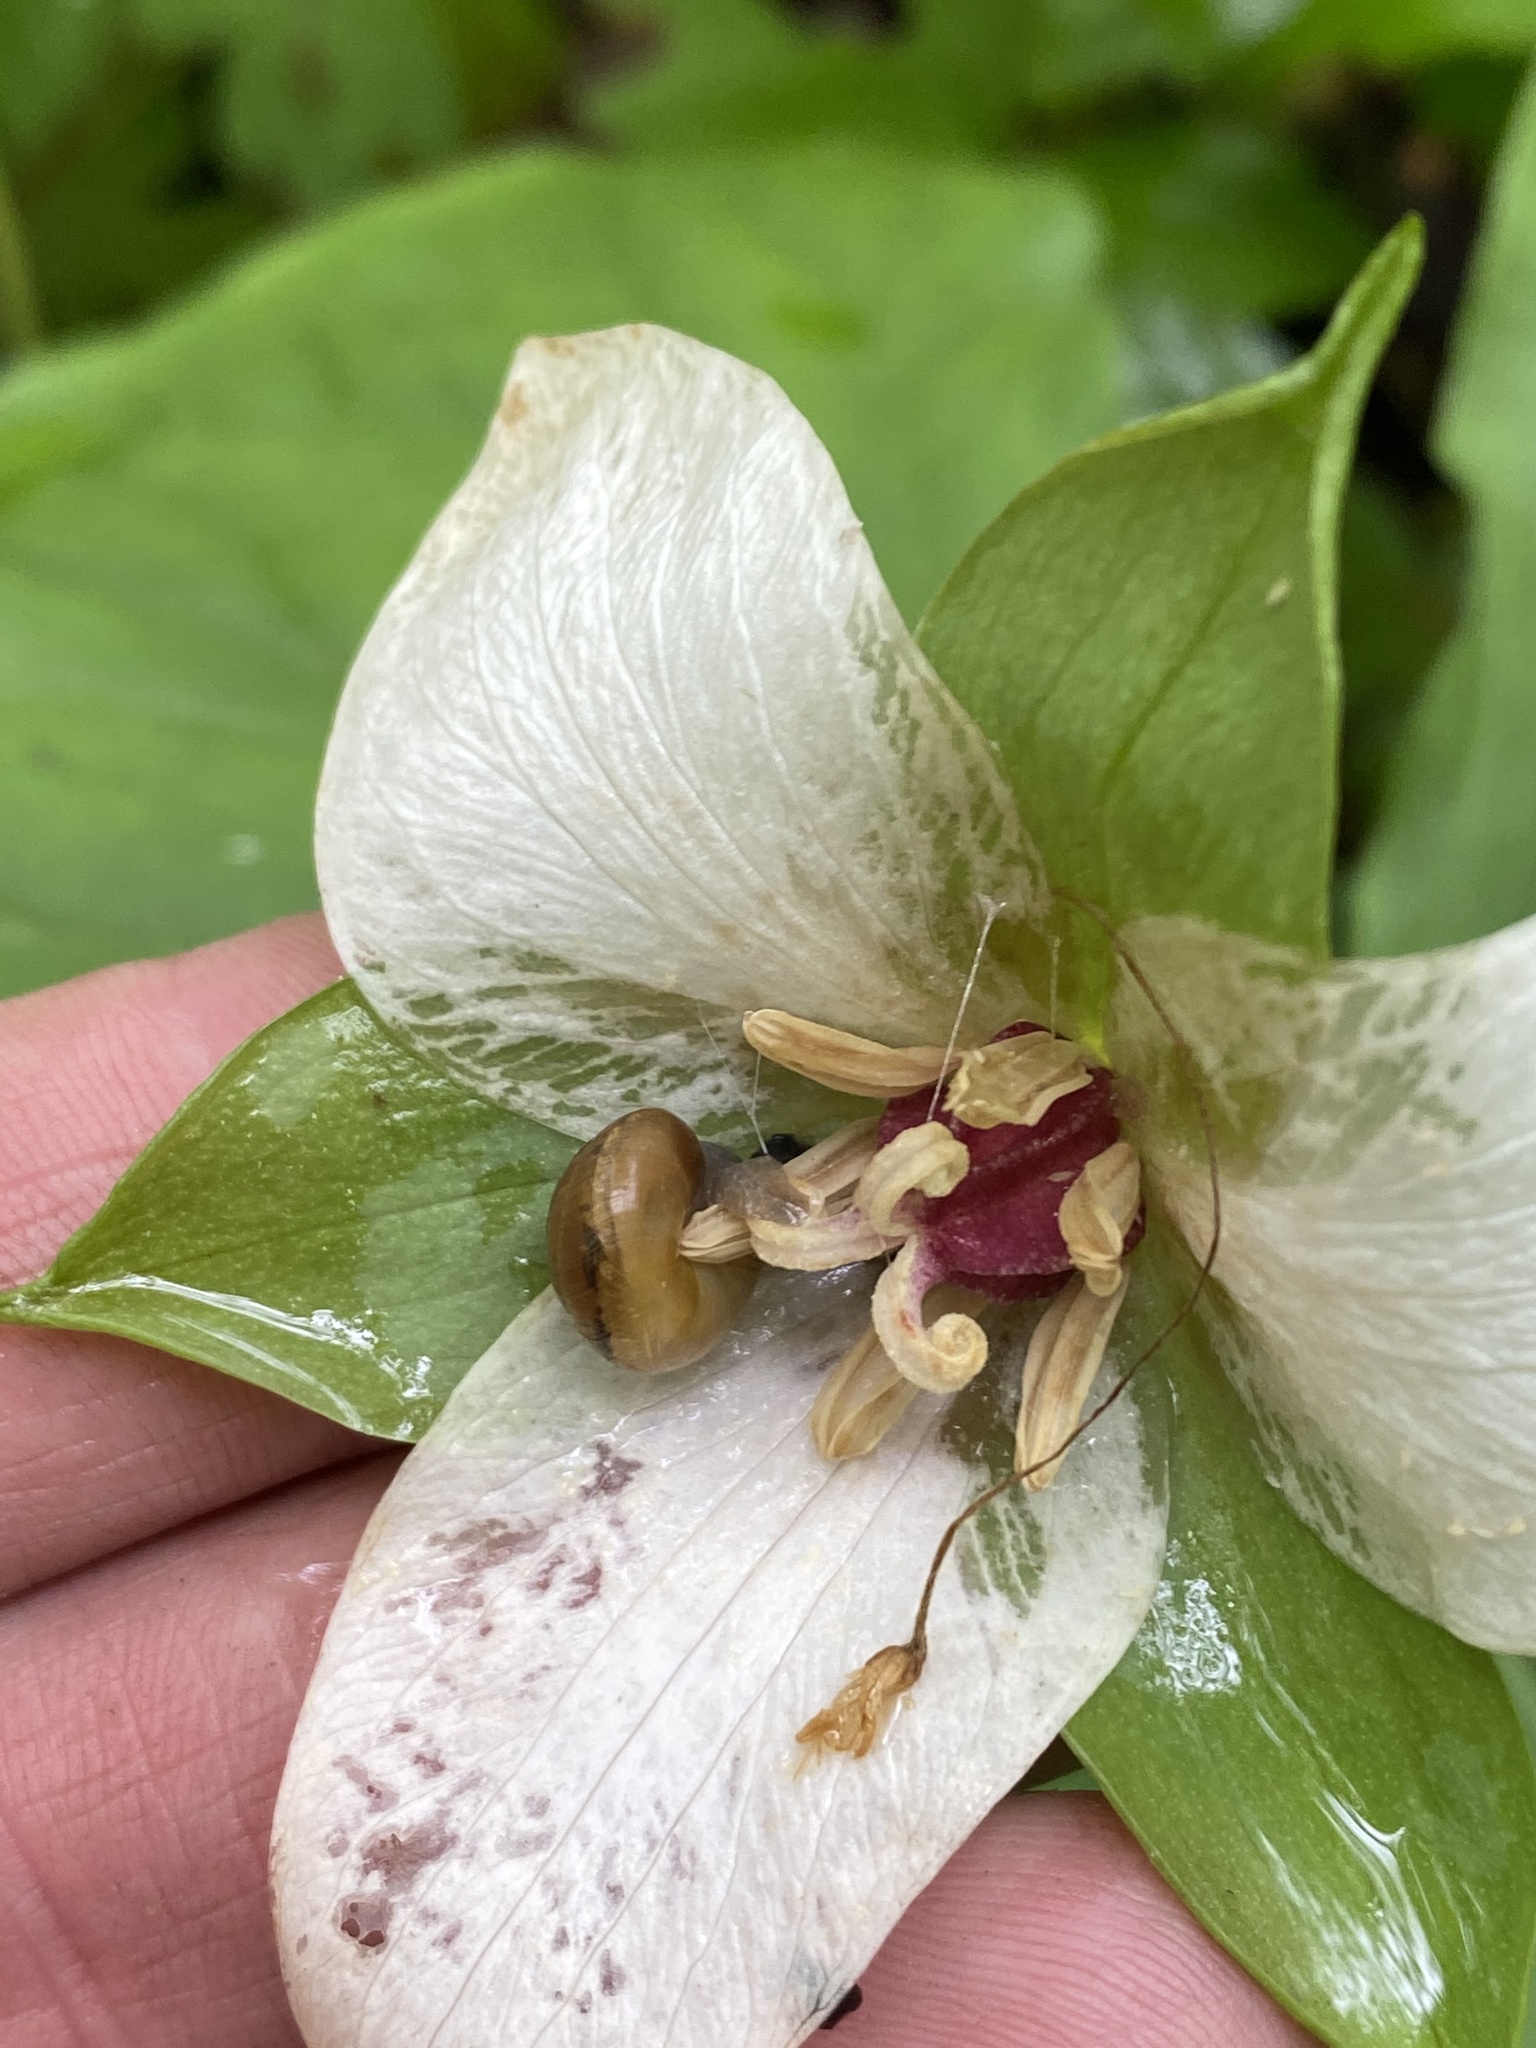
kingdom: Animalia
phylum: Mollusca
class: Gastropoda
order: Stylommatophora
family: Gastrodontidae
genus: Ventridens
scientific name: Ventridens ligera
